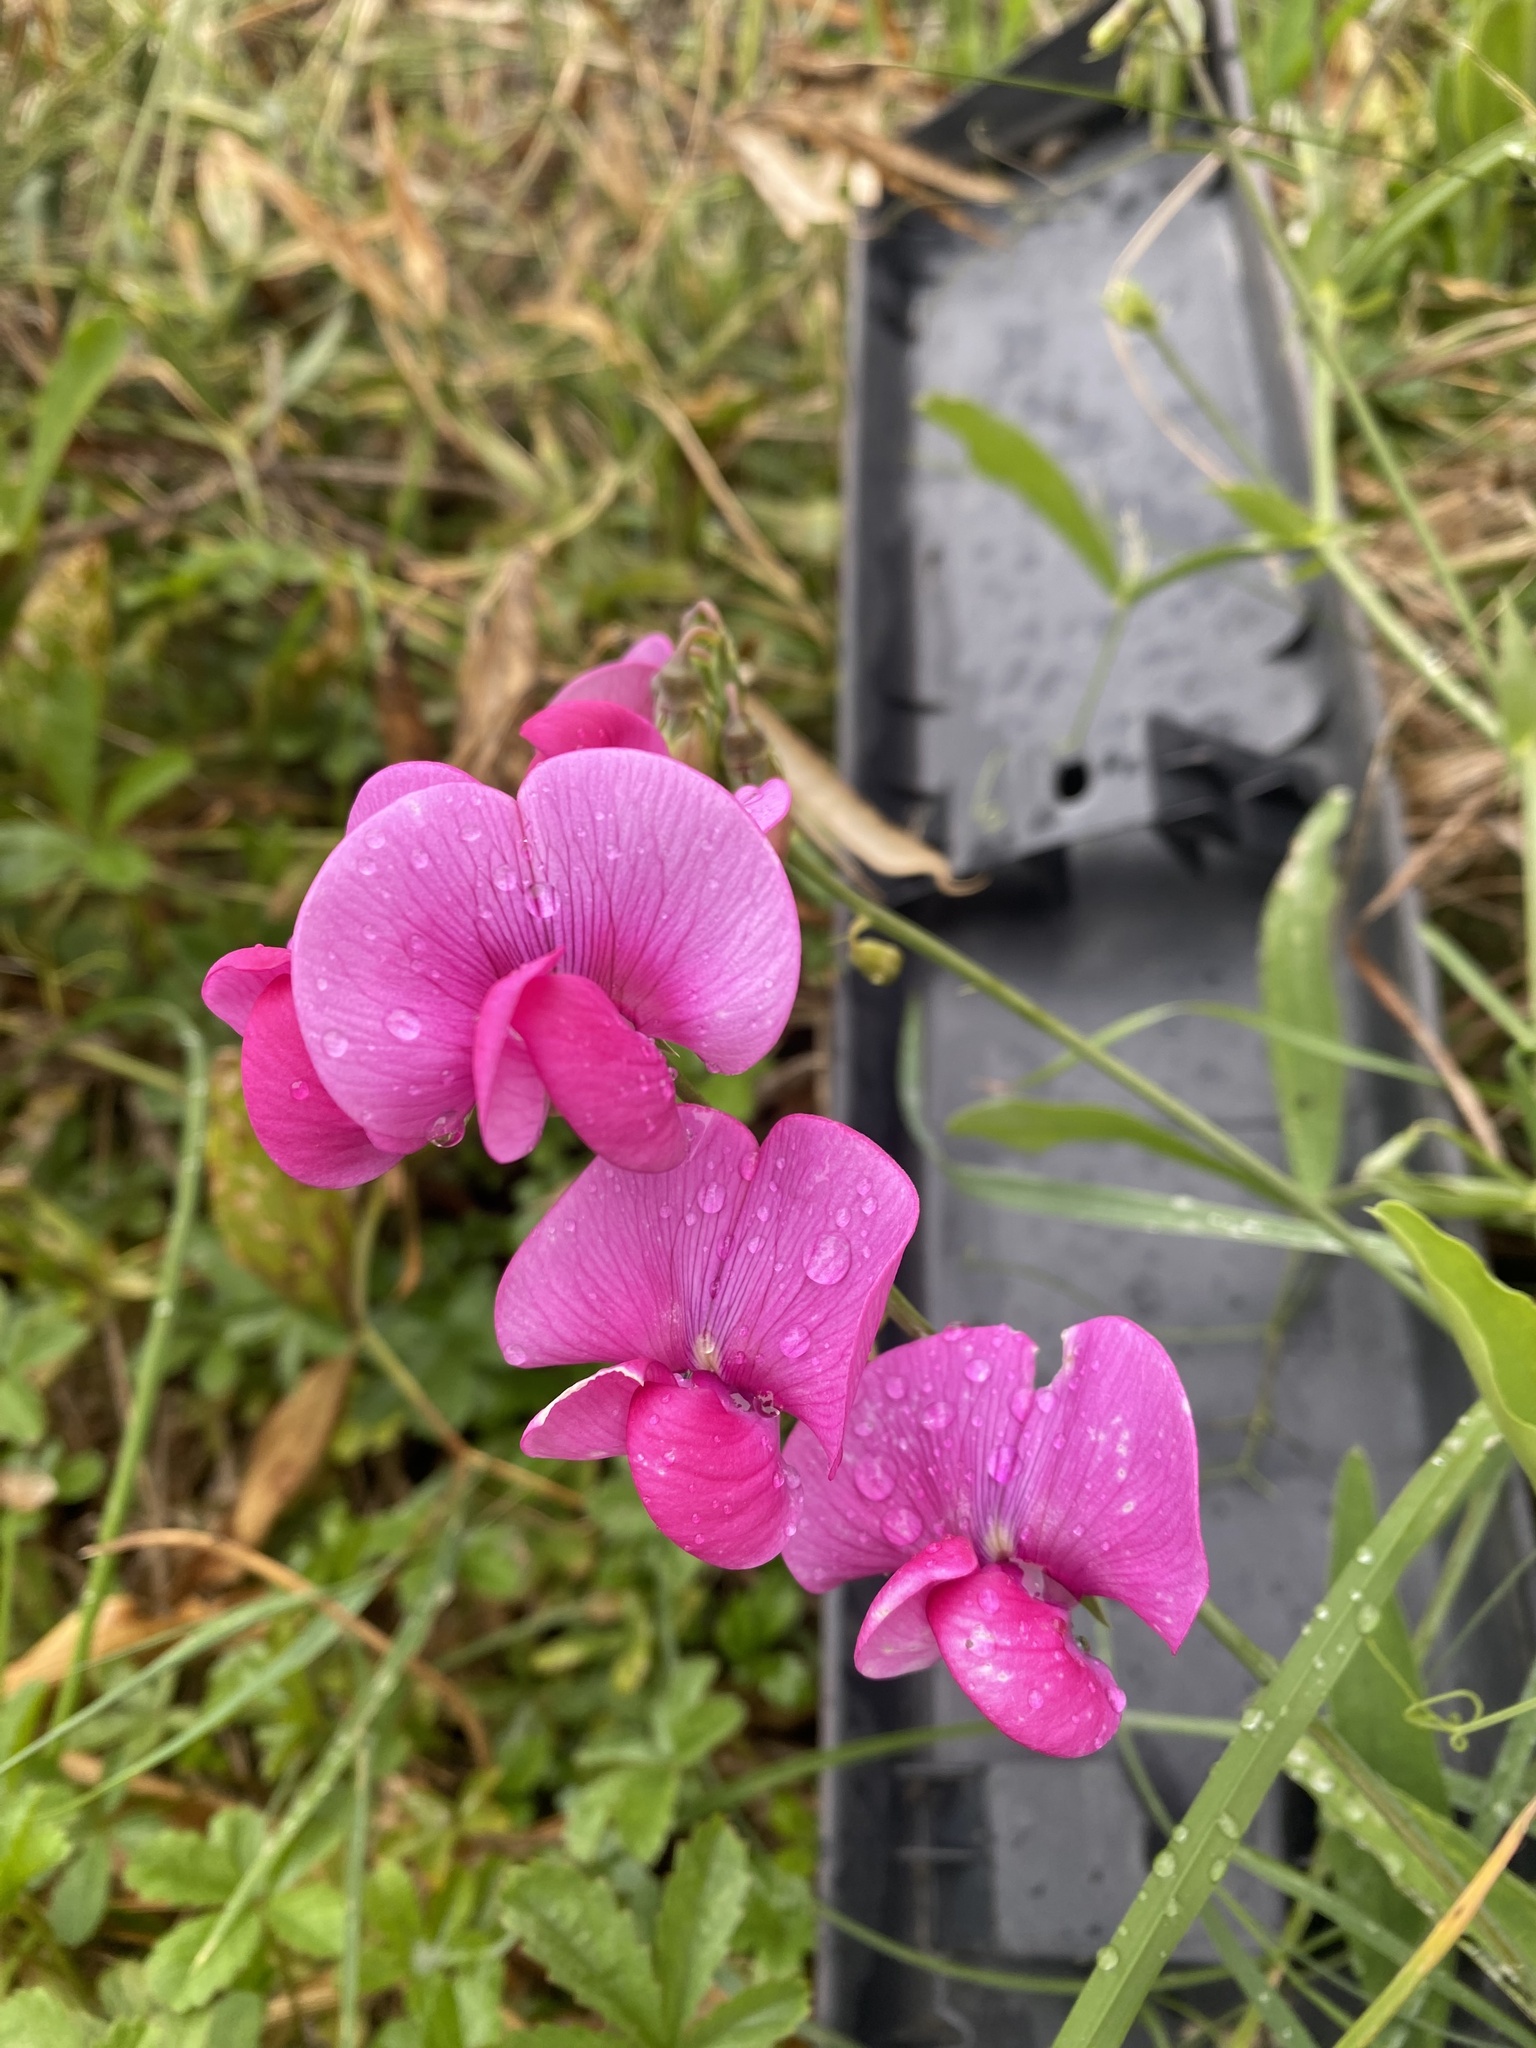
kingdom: Plantae
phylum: Tracheophyta
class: Magnoliopsida
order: Fabales
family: Fabaceae
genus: Lathyrus
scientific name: Lathyrus latifolius
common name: Perennial pea
